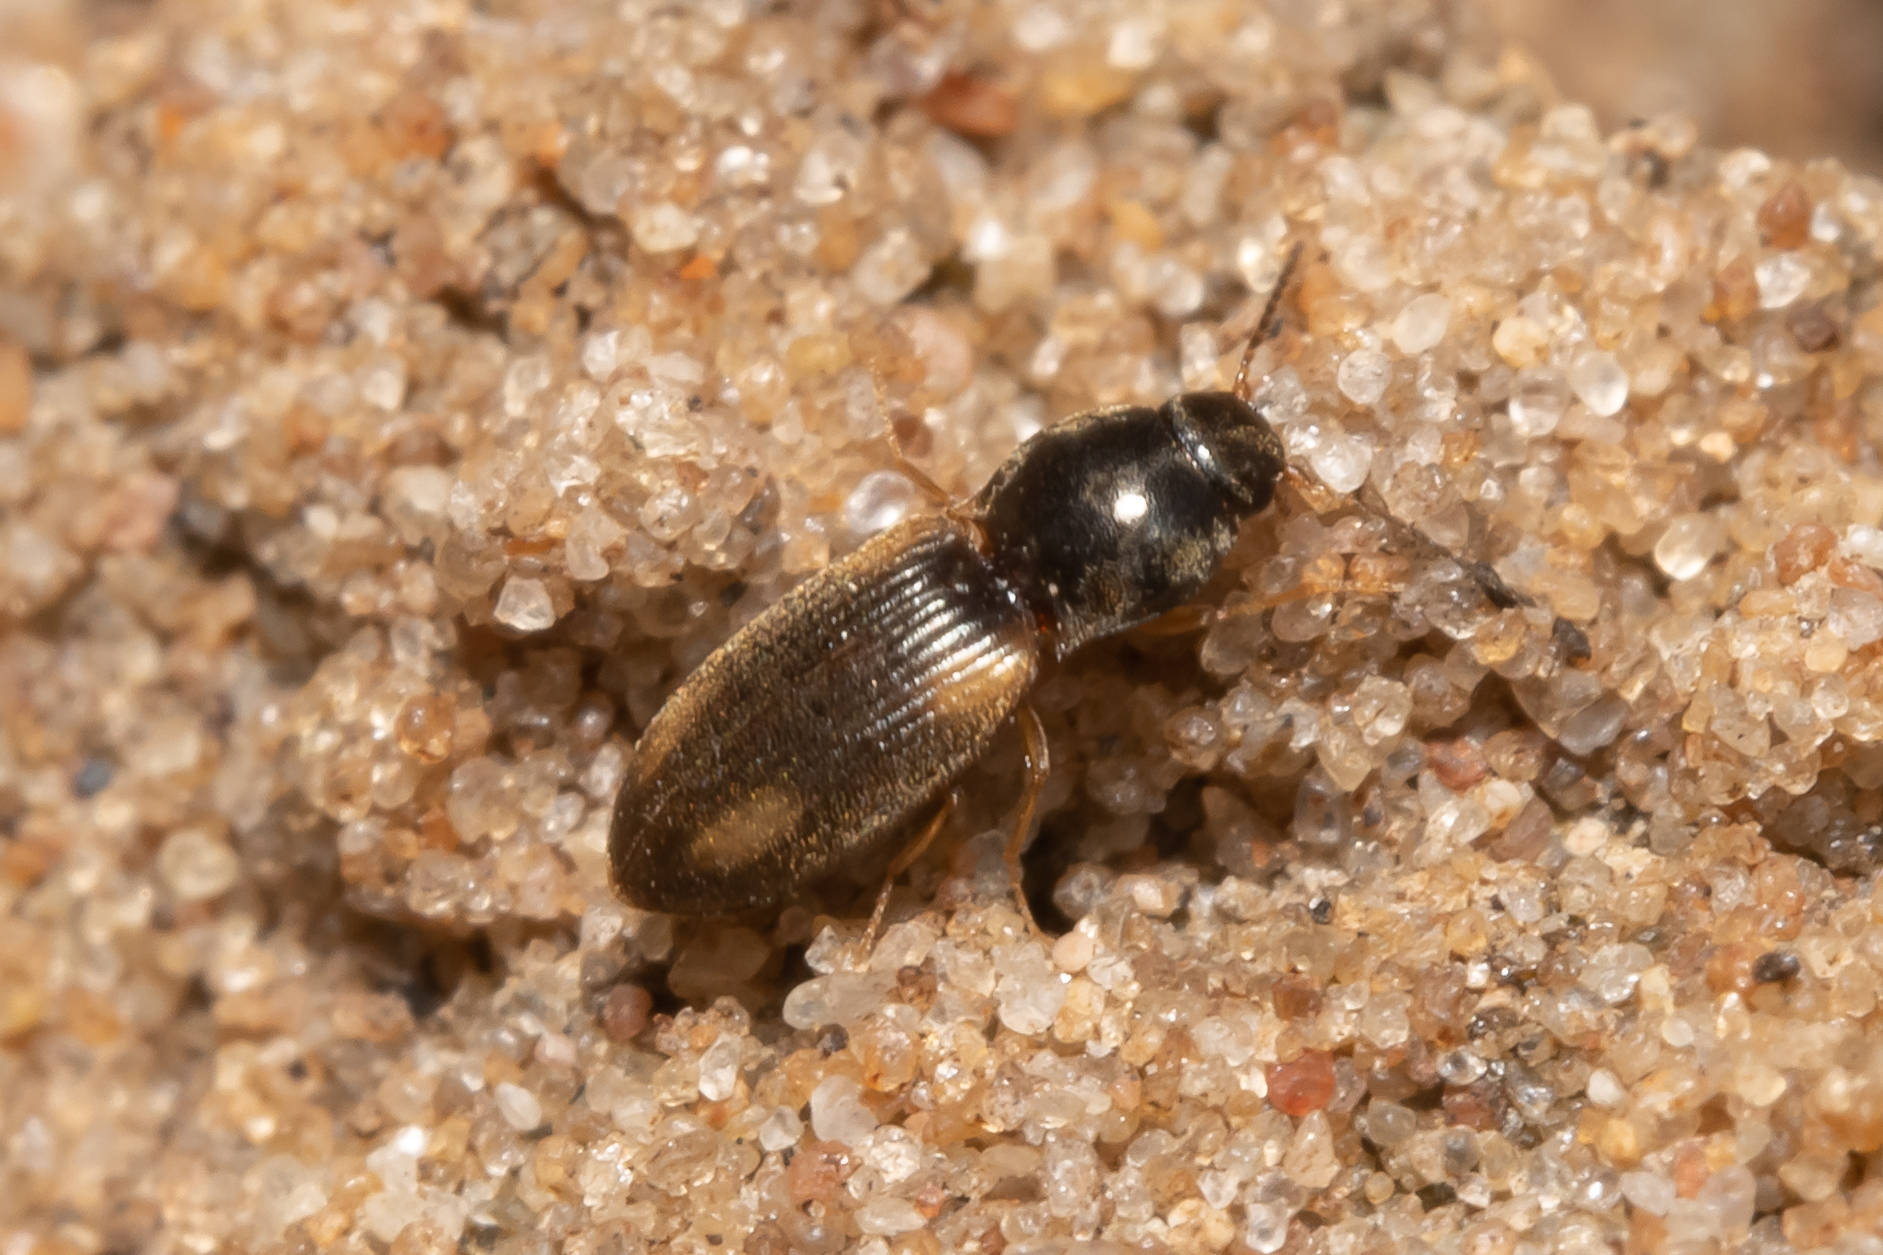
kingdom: Animalia
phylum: Arthropoda
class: Insecta
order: Coleoptera
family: Elateridae
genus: Oedostethus
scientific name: Oedostethus quadripustulatus
